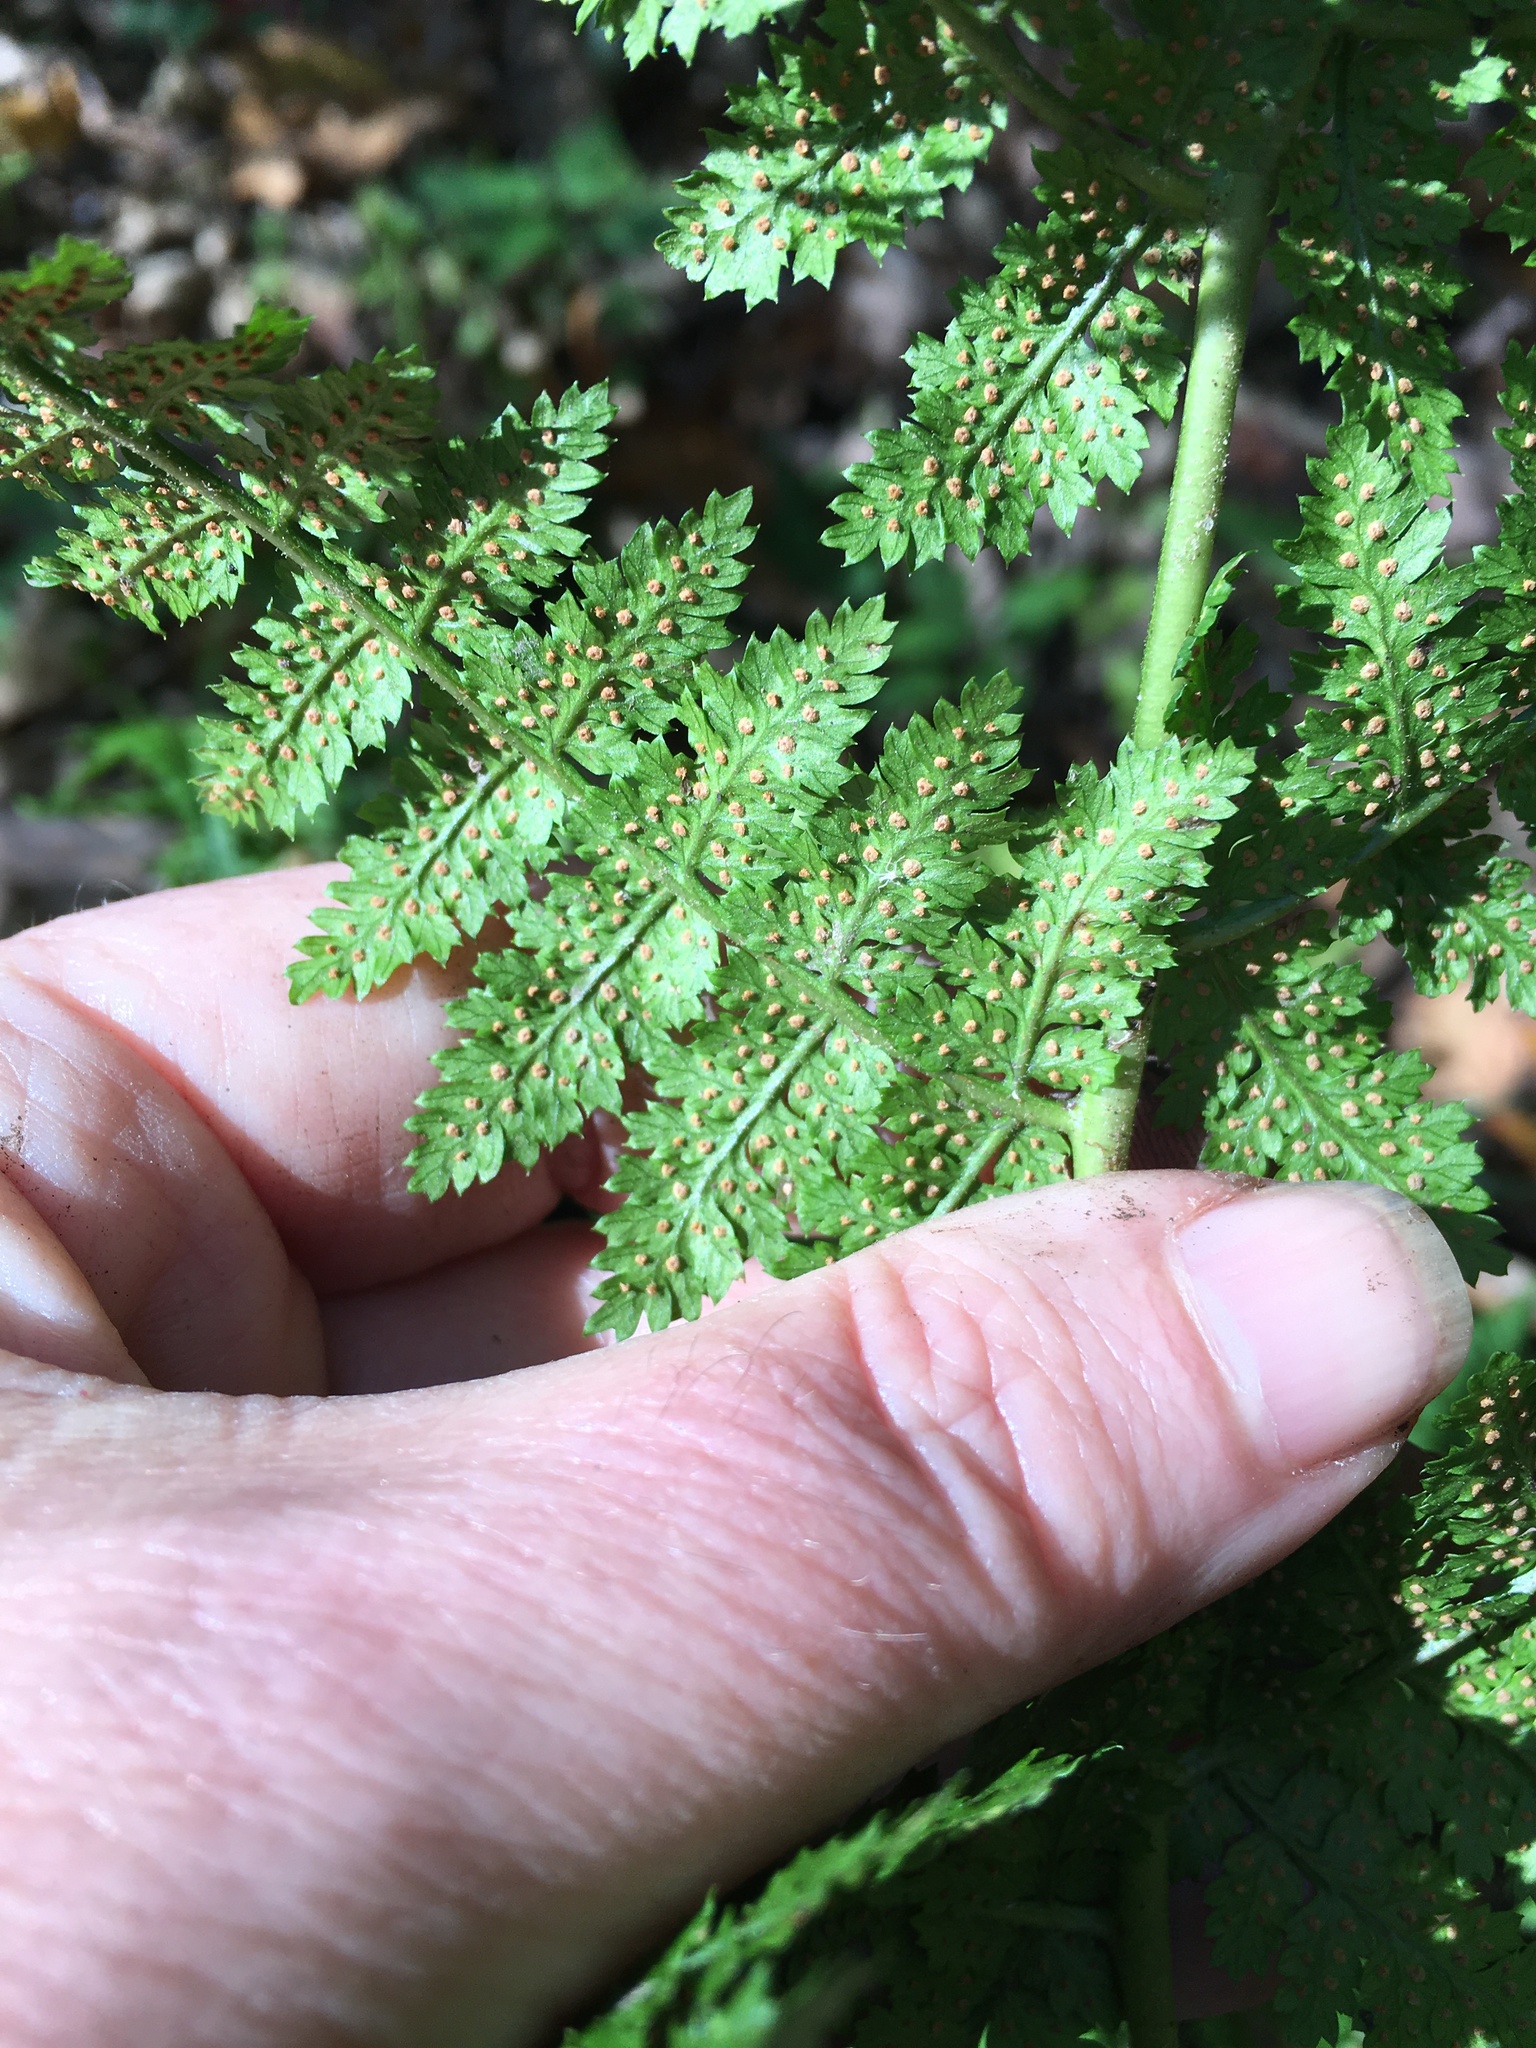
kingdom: Plantae
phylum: Tracheophyta
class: Polypodiopsida
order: Polypodiales
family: Dryopteridaceae
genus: Dryopteris
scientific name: Dryopteris intermedia
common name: Evergreen wood fern
